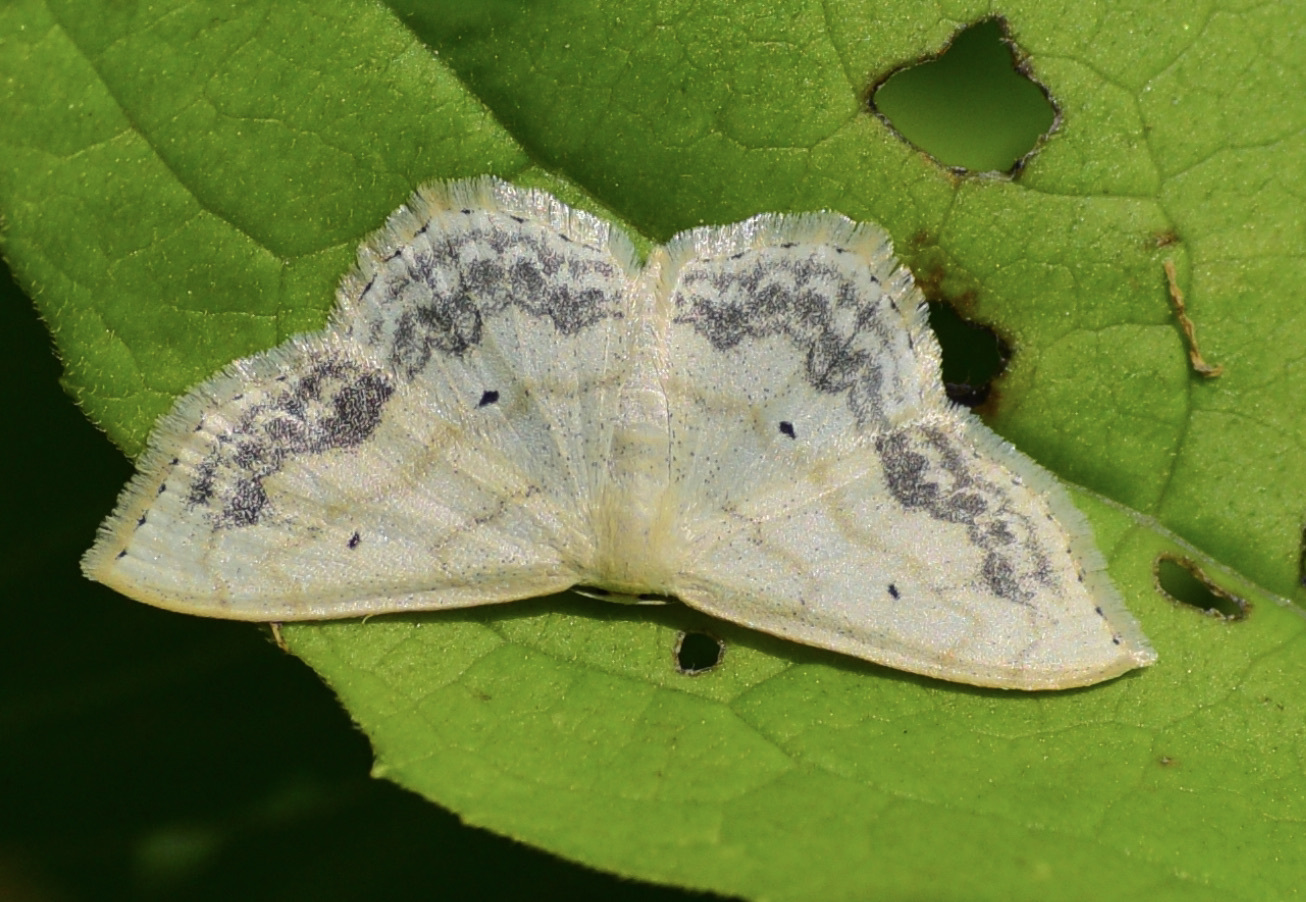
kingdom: Animalia
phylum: Arthropoda
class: Insecta
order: Lepidoptera
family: Geometridae
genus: Scopula
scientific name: Scopula limboundata
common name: Large lace border
